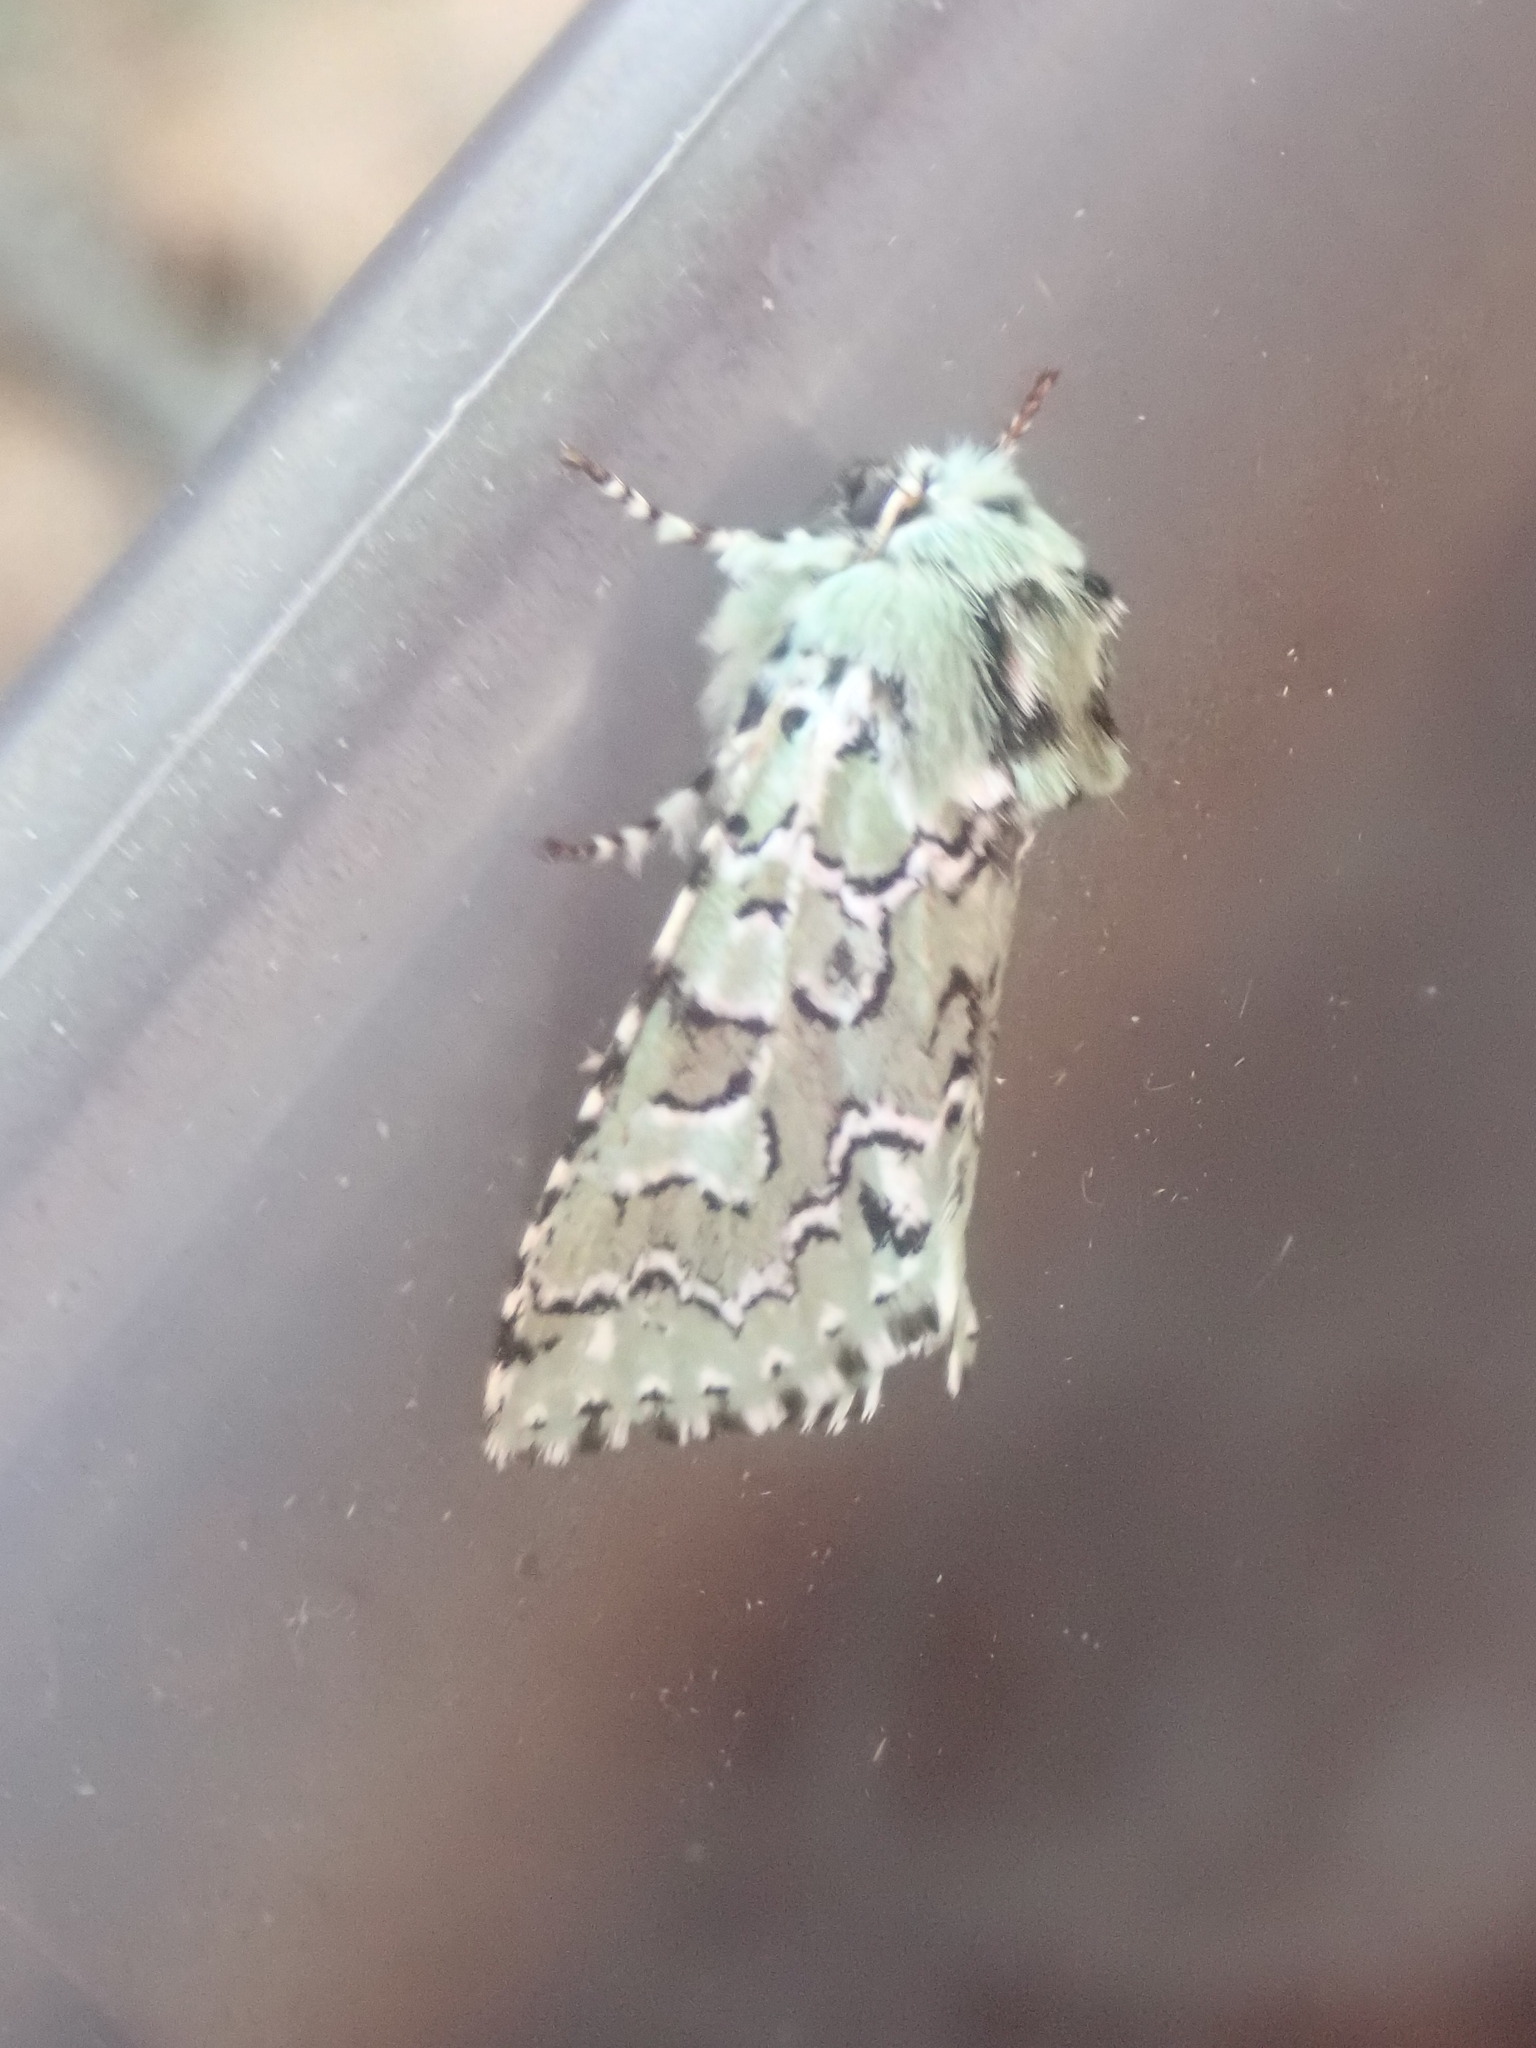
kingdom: Animalia
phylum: Arthropoda
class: Insecta
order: Lepidoptera
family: Noctuidae
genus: Feralia
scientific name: Feralia jocosa
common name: Joker
